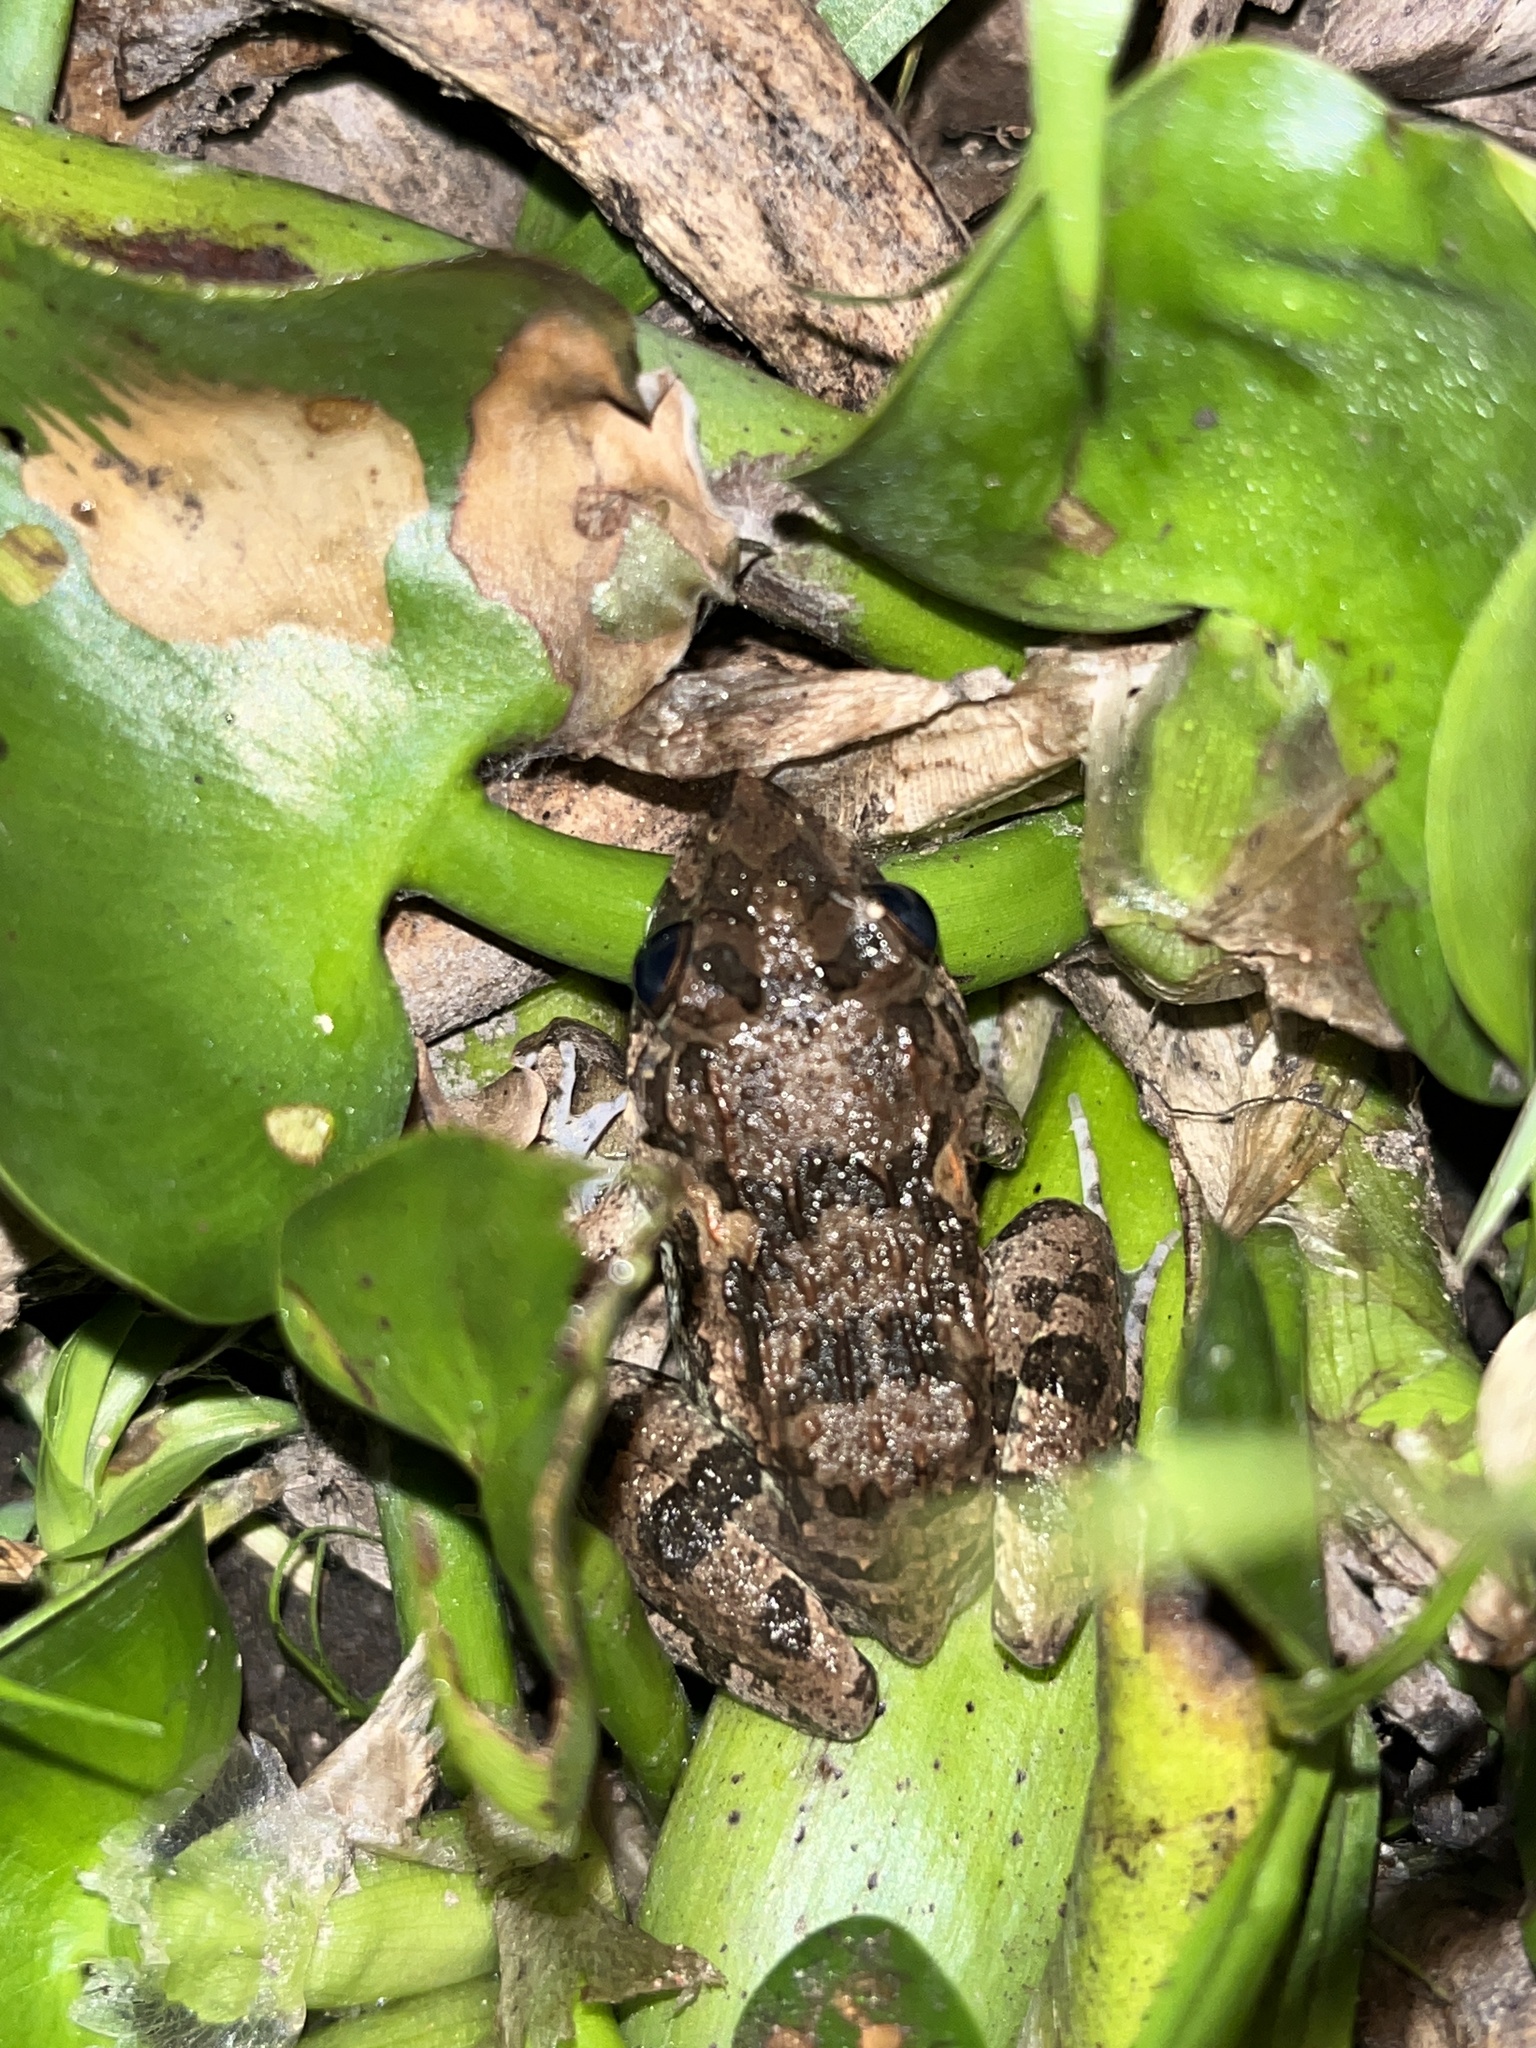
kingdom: Animalia
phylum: Chordata
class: Amphibia
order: Anura
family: Dicroglossidae
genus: Fejervarya
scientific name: Fejervarya limnocharis
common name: Asian grass frog/common pond frog/field frog/grass frog/indian rice frog
